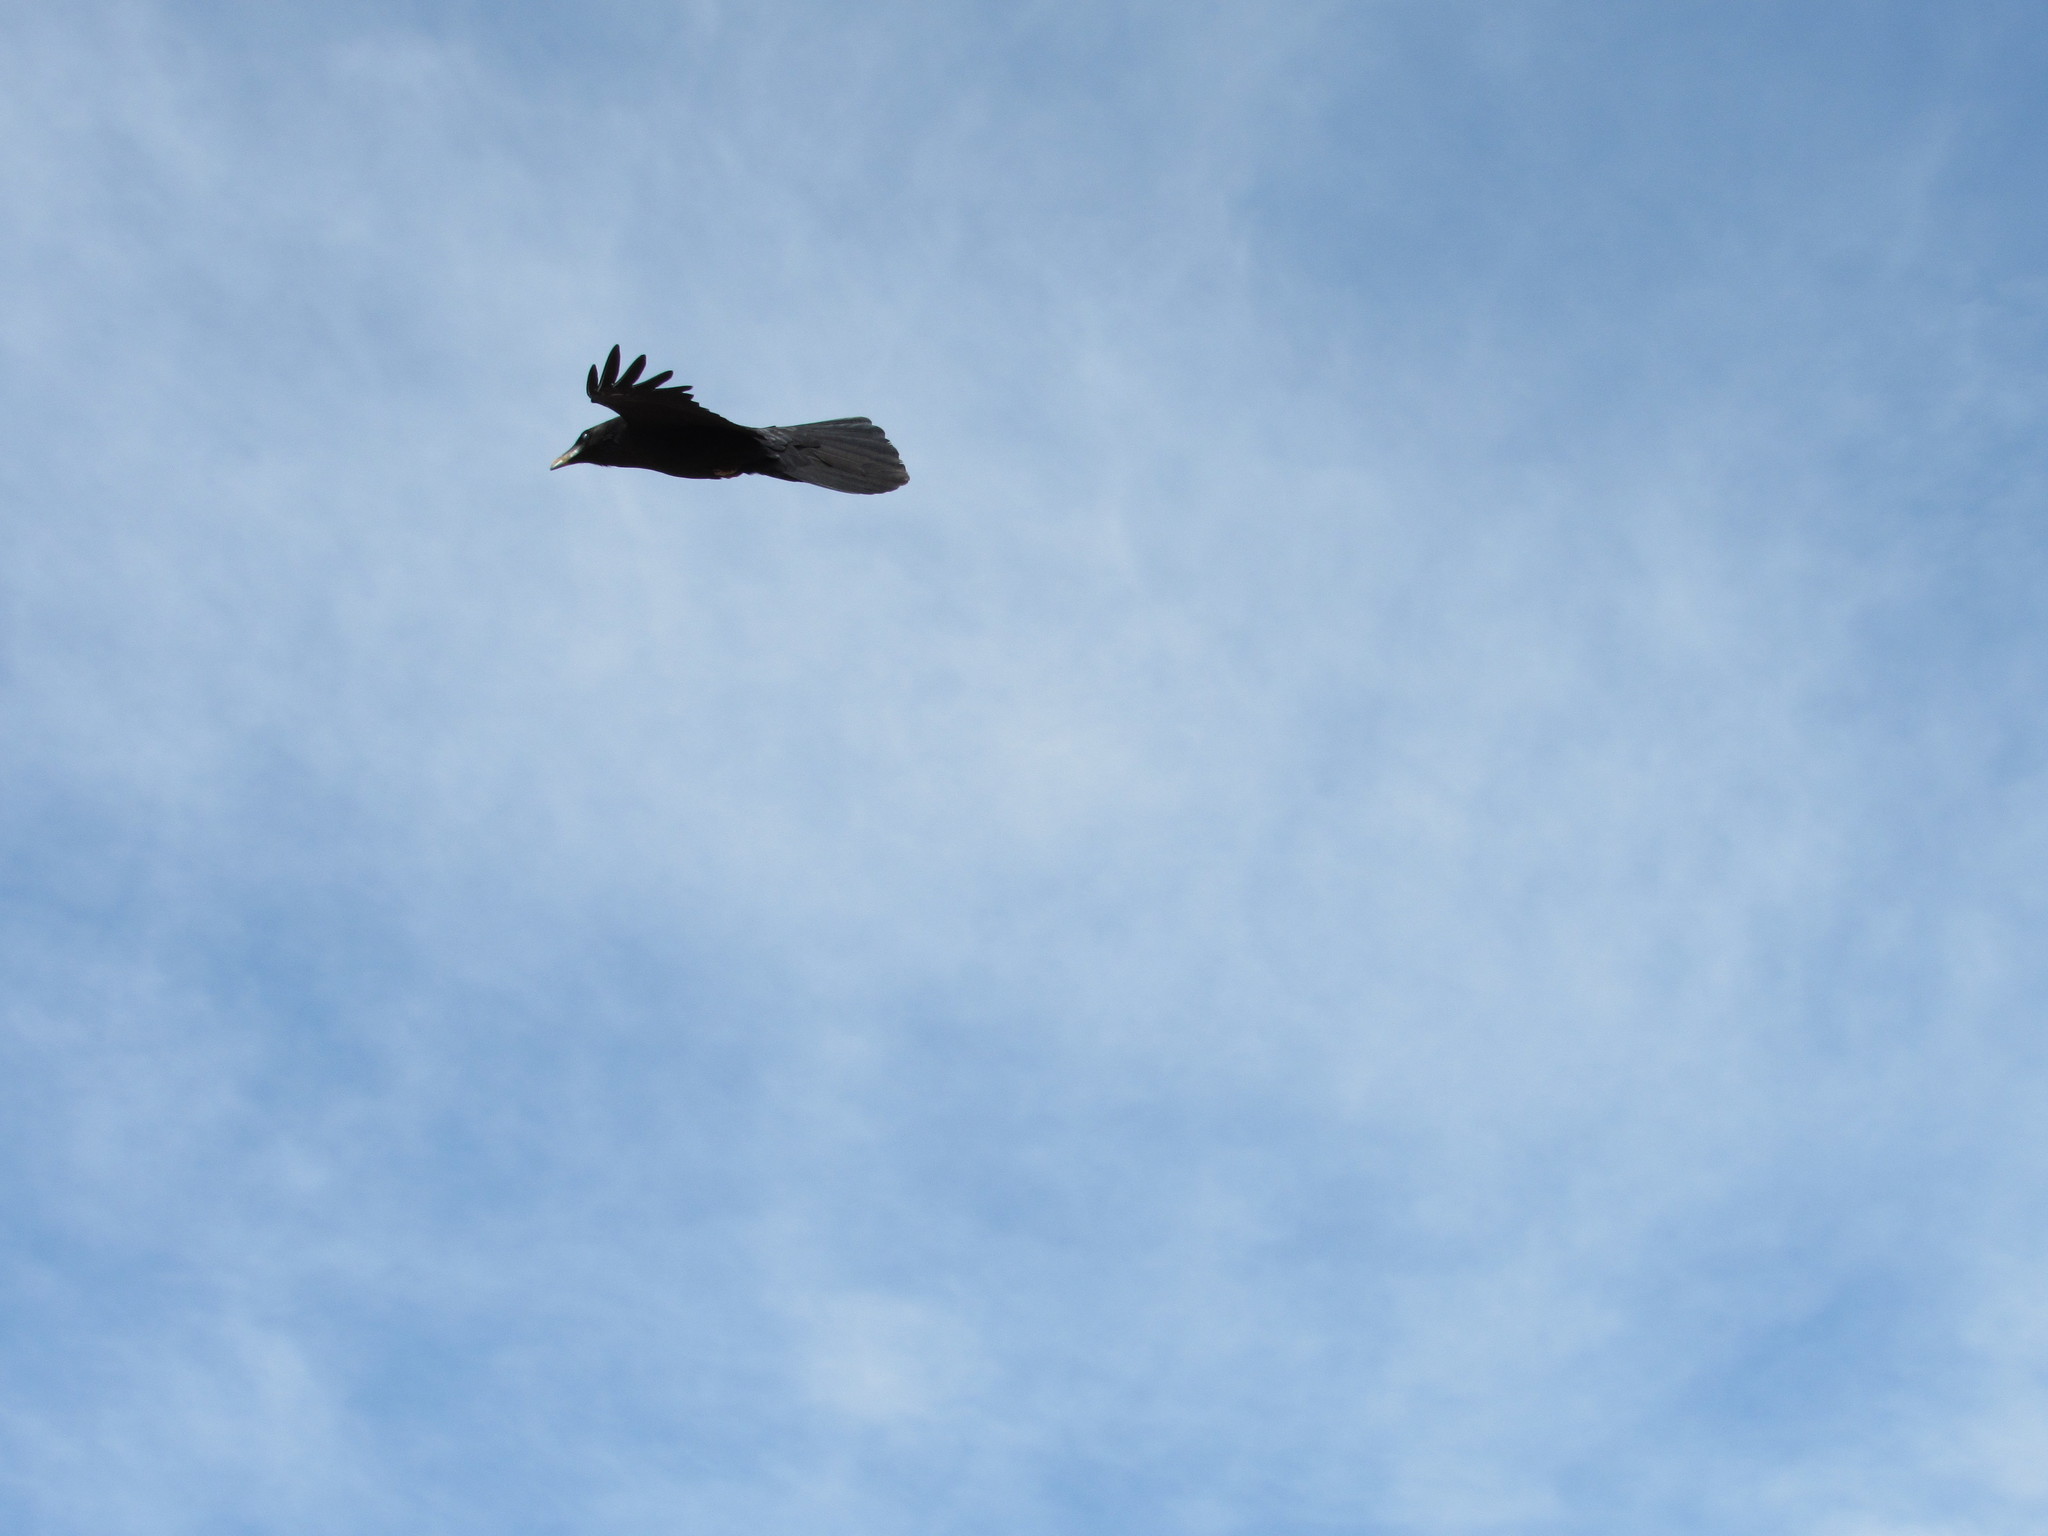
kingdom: Animalia
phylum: Chordata
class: Aves
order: Passeriformes
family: Corvidae
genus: Corvus
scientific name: Corvus corax
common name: Common raven
